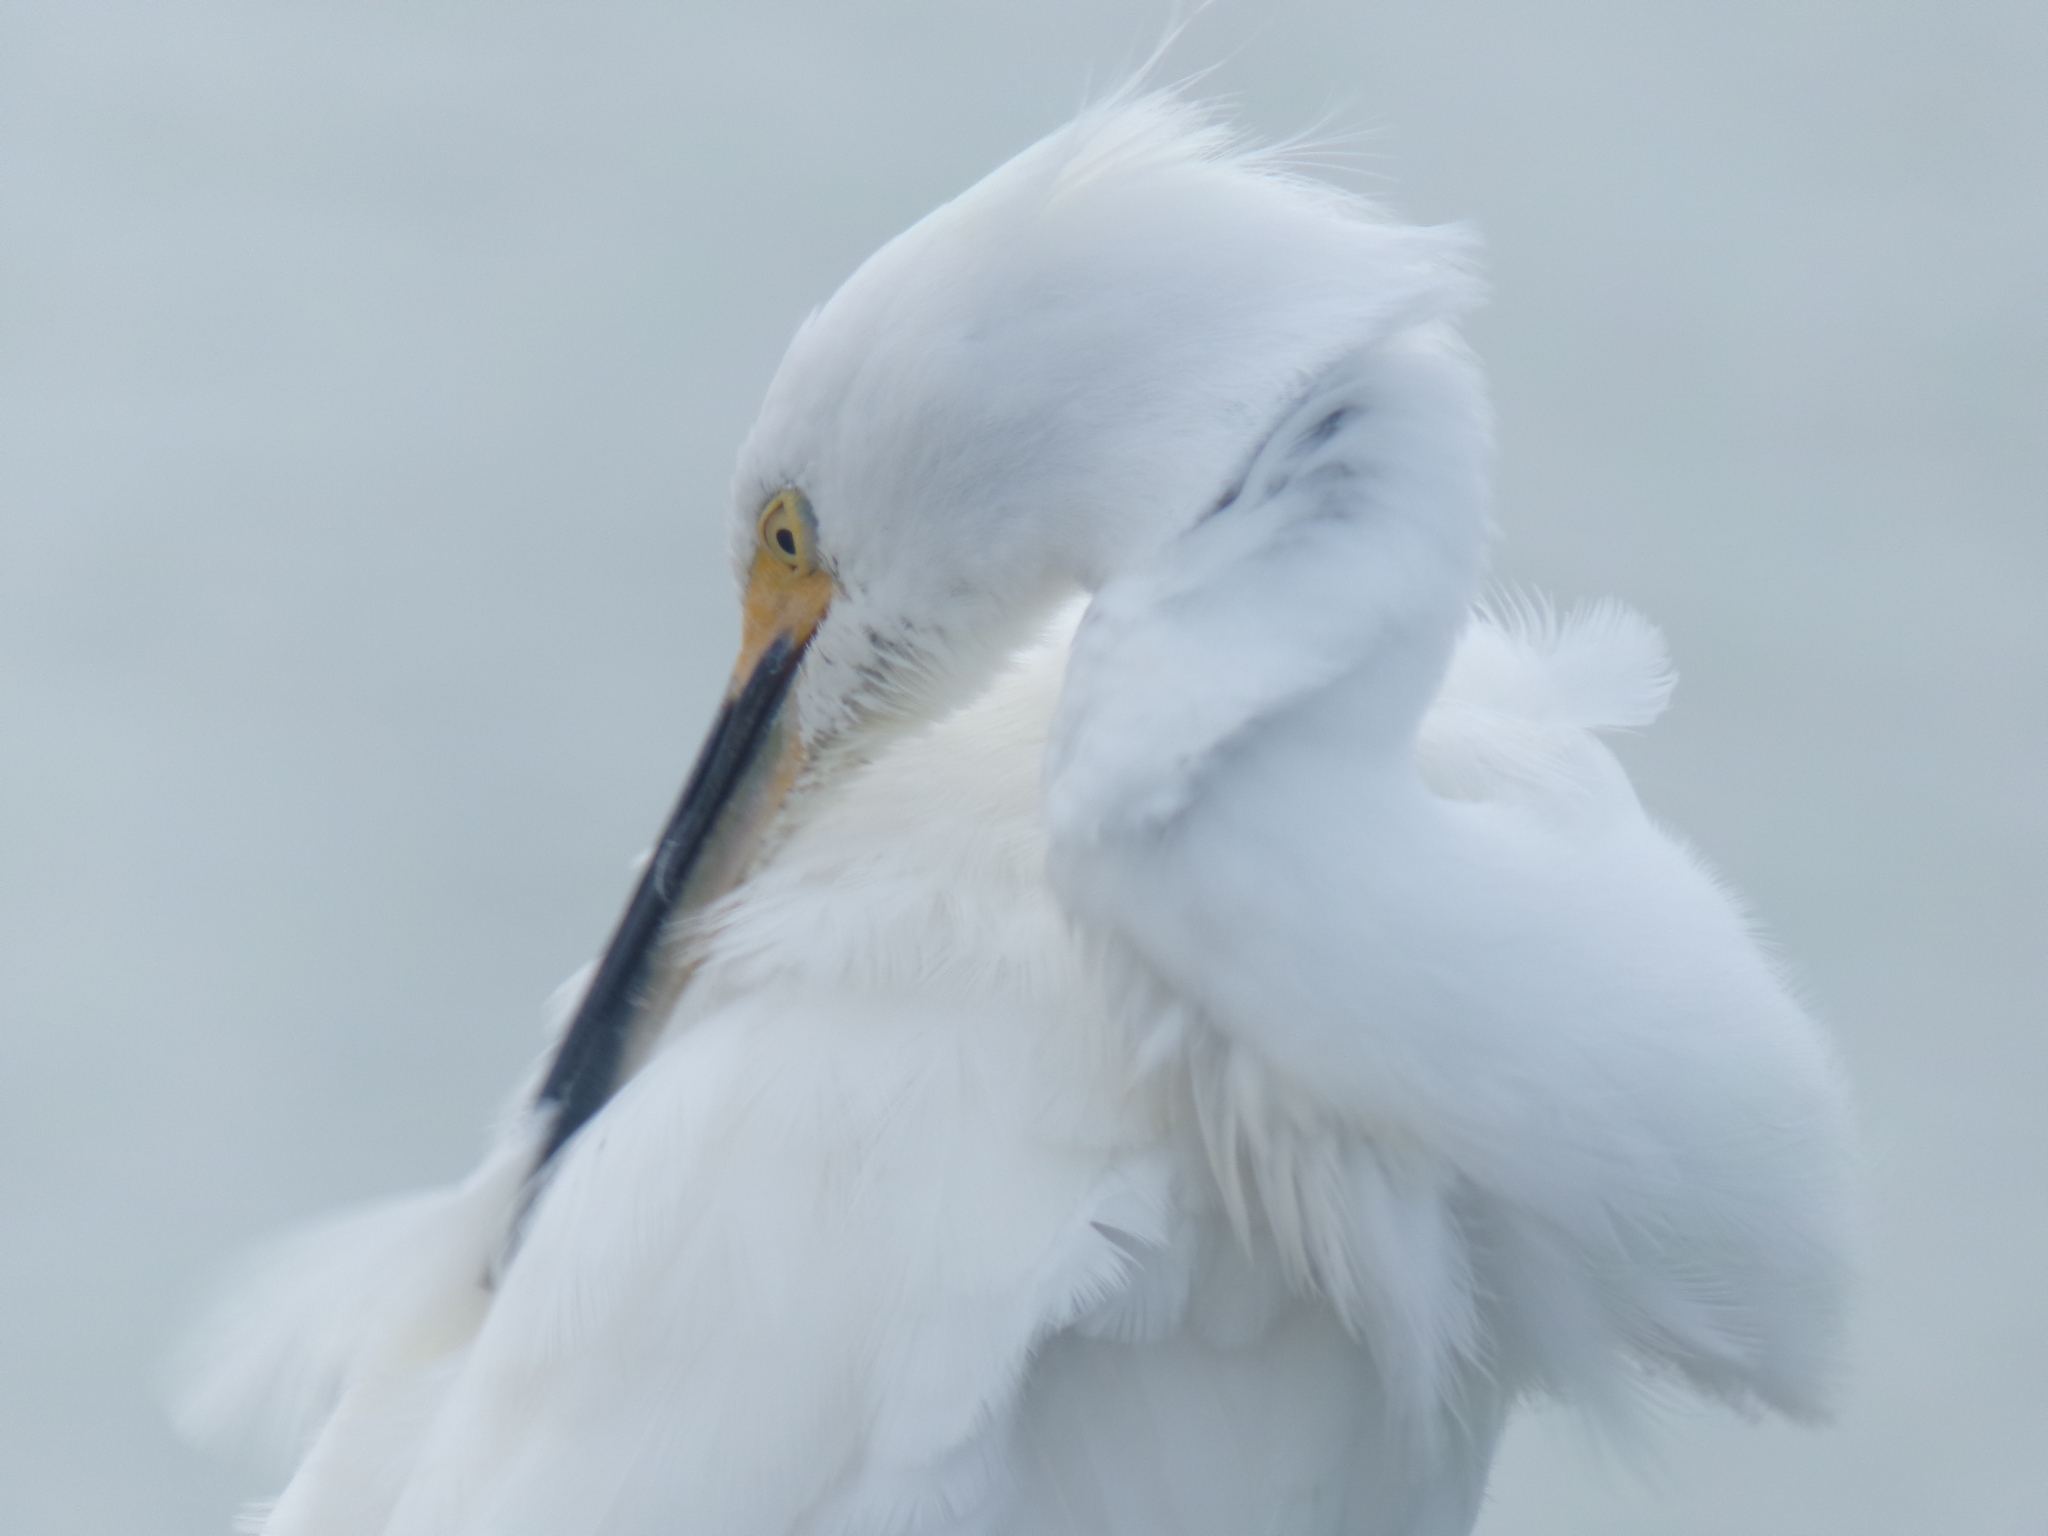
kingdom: Animalia
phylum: Chordata
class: Aves
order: Pelecaniformes
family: Ardeidae
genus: Egretta
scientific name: Egretta thula
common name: Snowy egret
